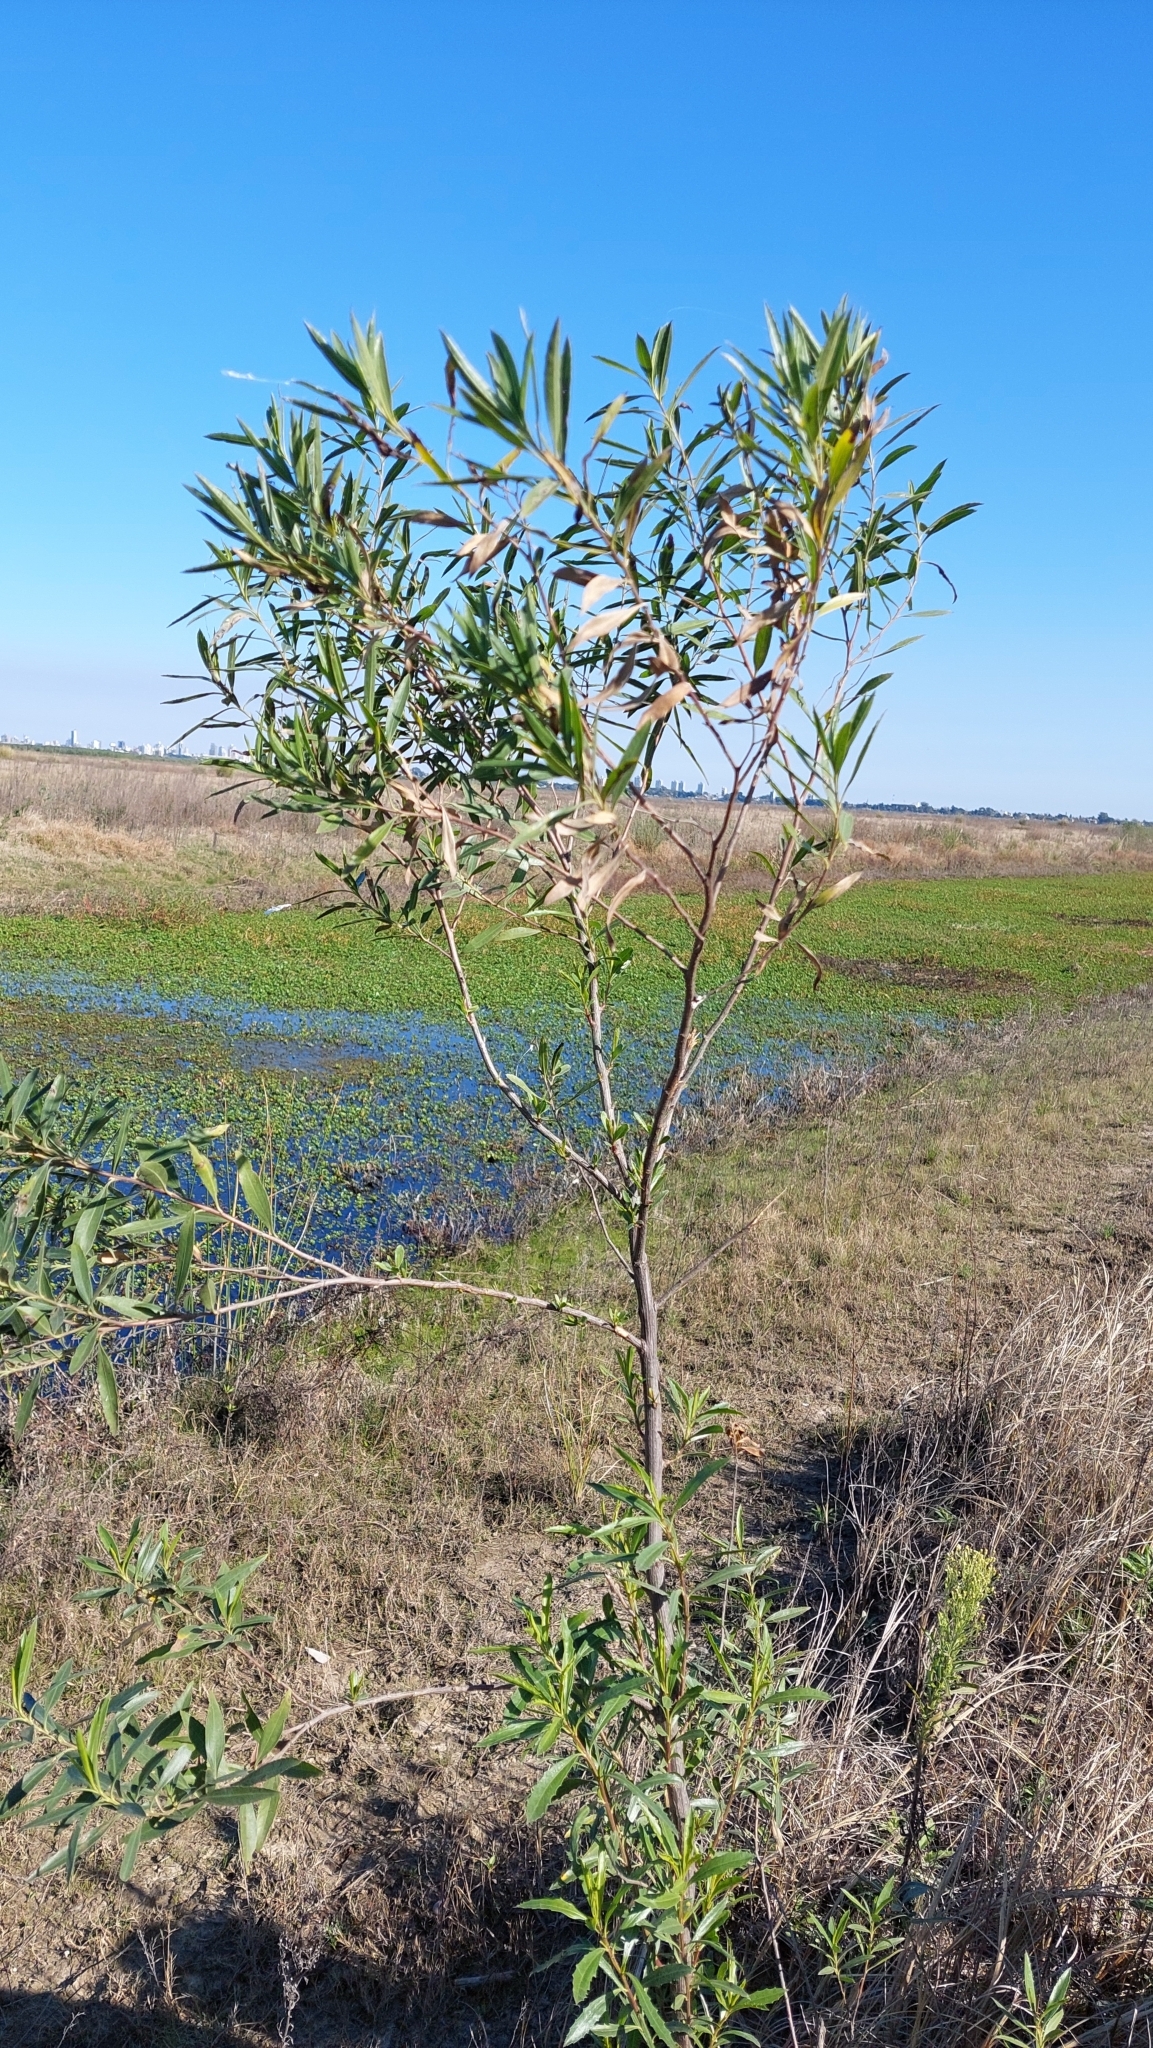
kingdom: Plantae
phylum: Tracheophyta
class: Magnoliopsida
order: Asterales
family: Asteraceae
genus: Baccharis
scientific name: Baccharis salicifolia
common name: Sticky baccharis
